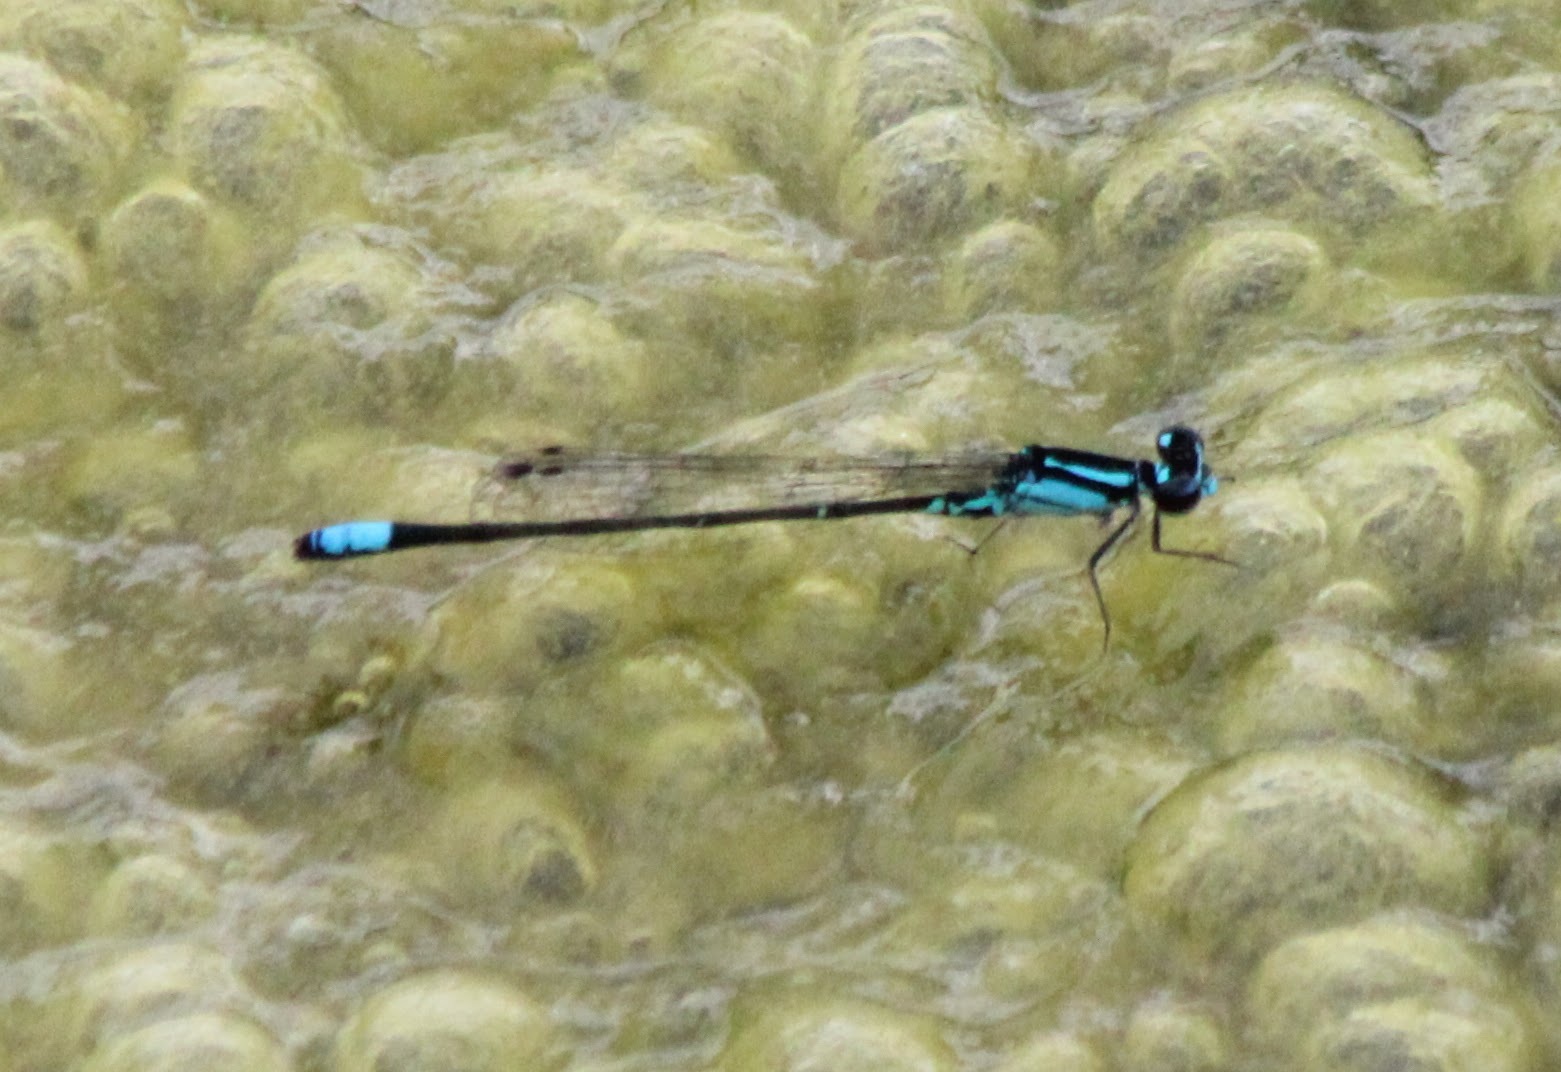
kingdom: Animalia
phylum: Arthropoda
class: Insecta
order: Odonata
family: Coenagrionidae
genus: Enallagma
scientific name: Enallagma geminatum
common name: Skimming bluet
